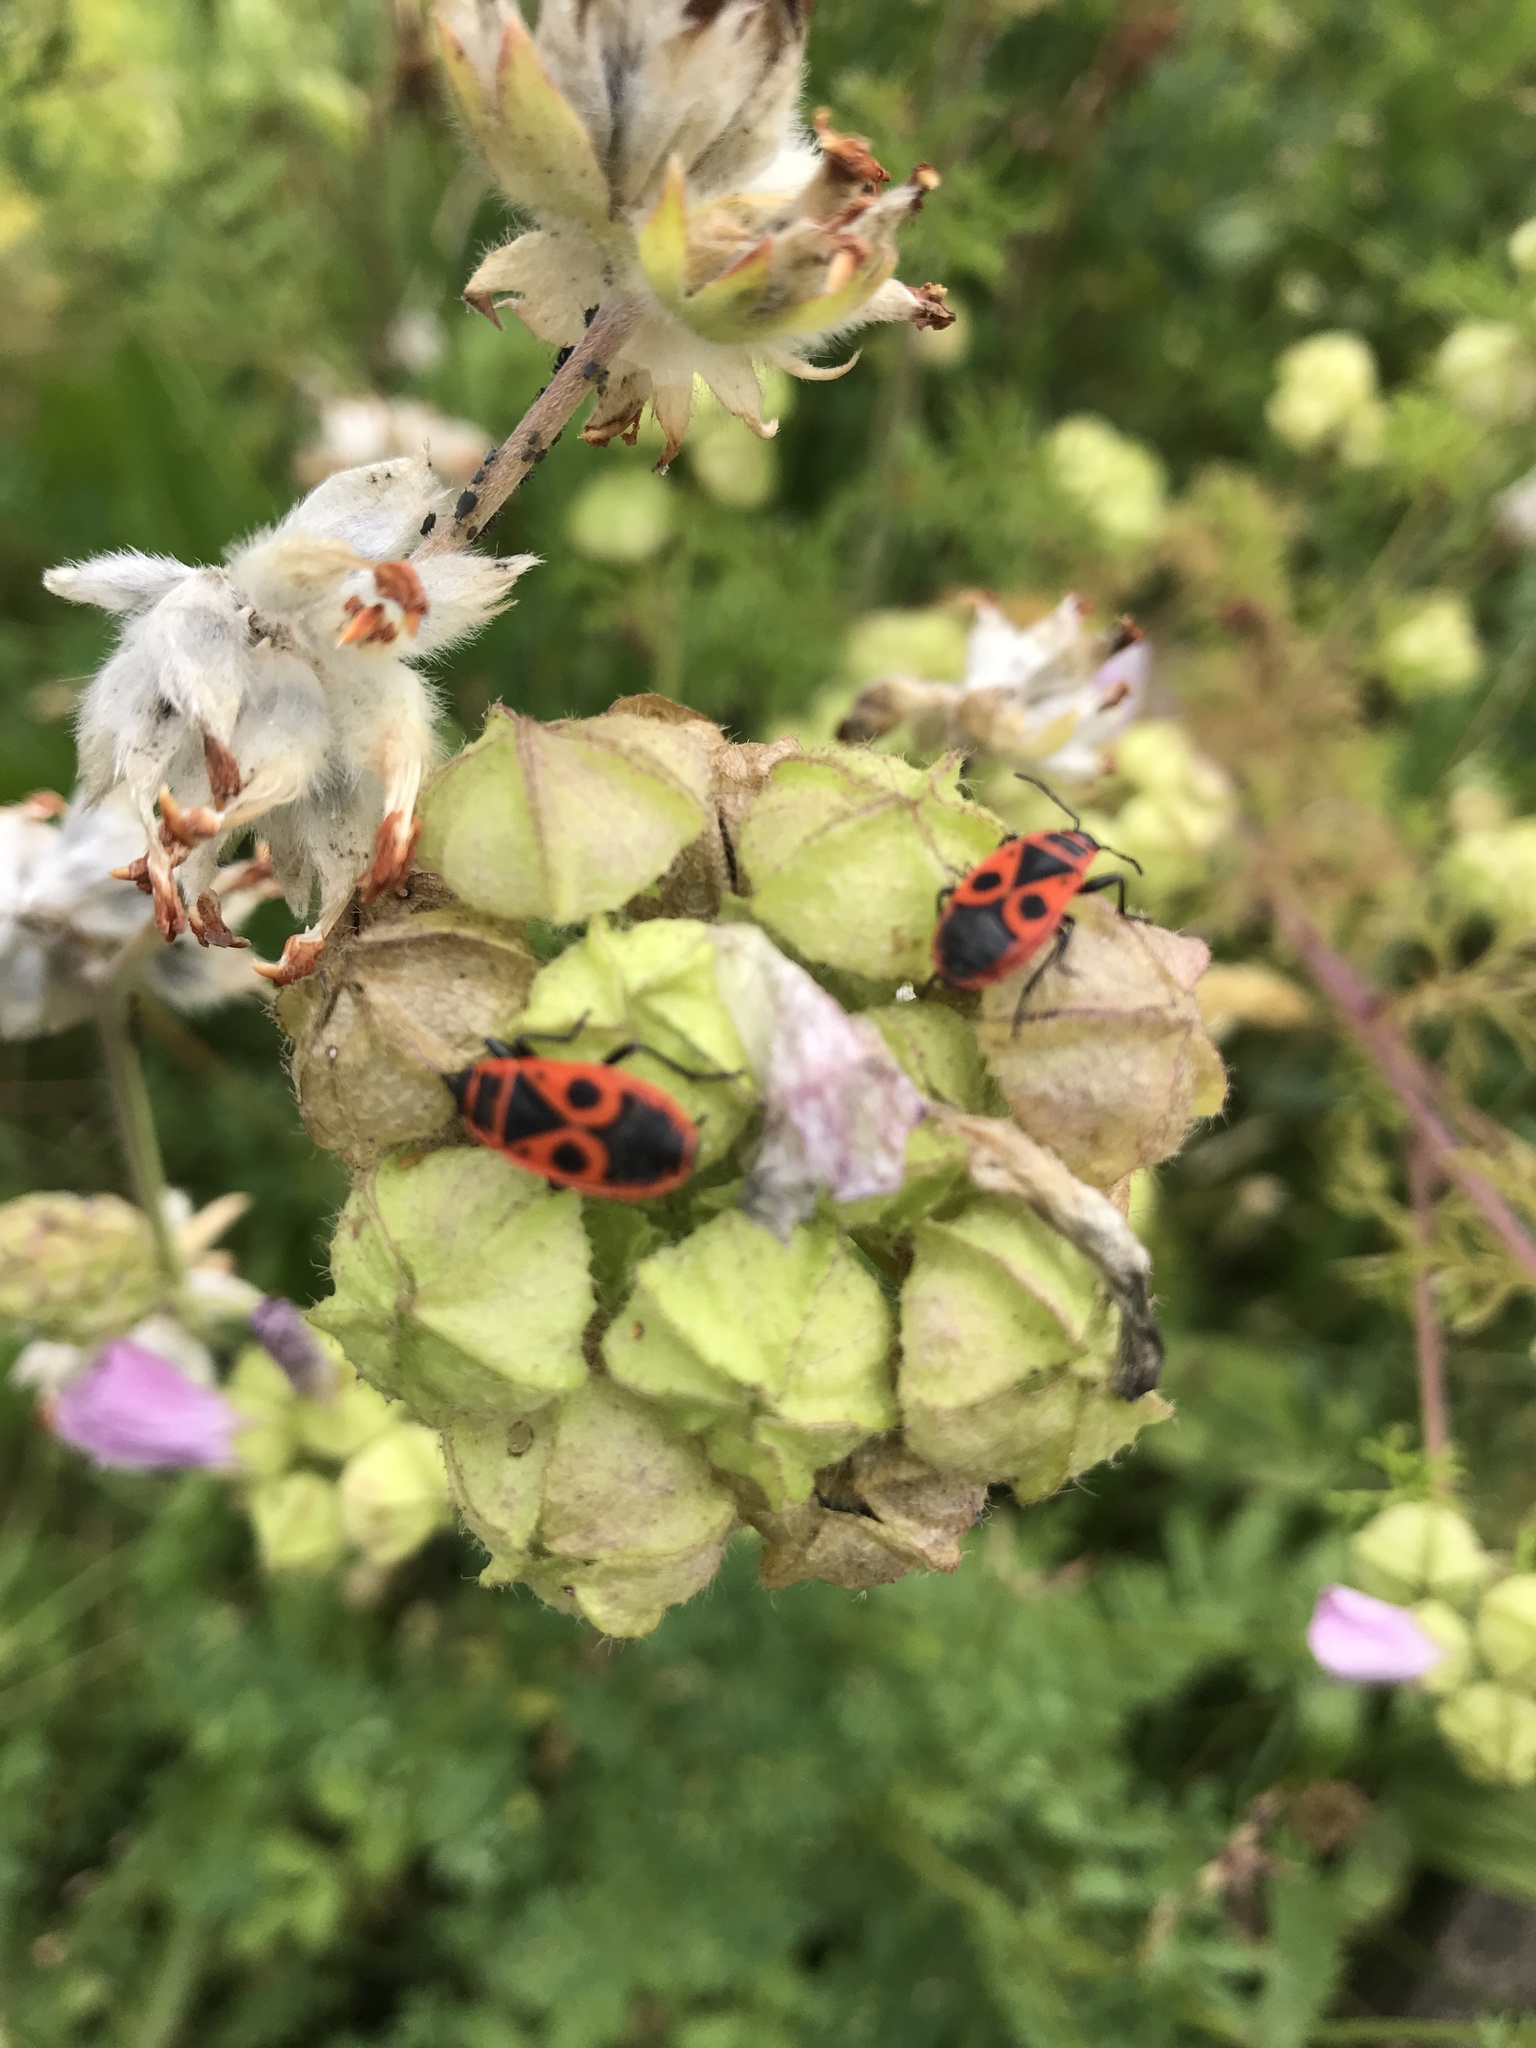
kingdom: Animalia
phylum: Arthropoda
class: Insecta
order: Hemiptera
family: Pyrrhocoridae
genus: Pyrrhocoris
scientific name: Pyrrhocoris apterus
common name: Firebug
